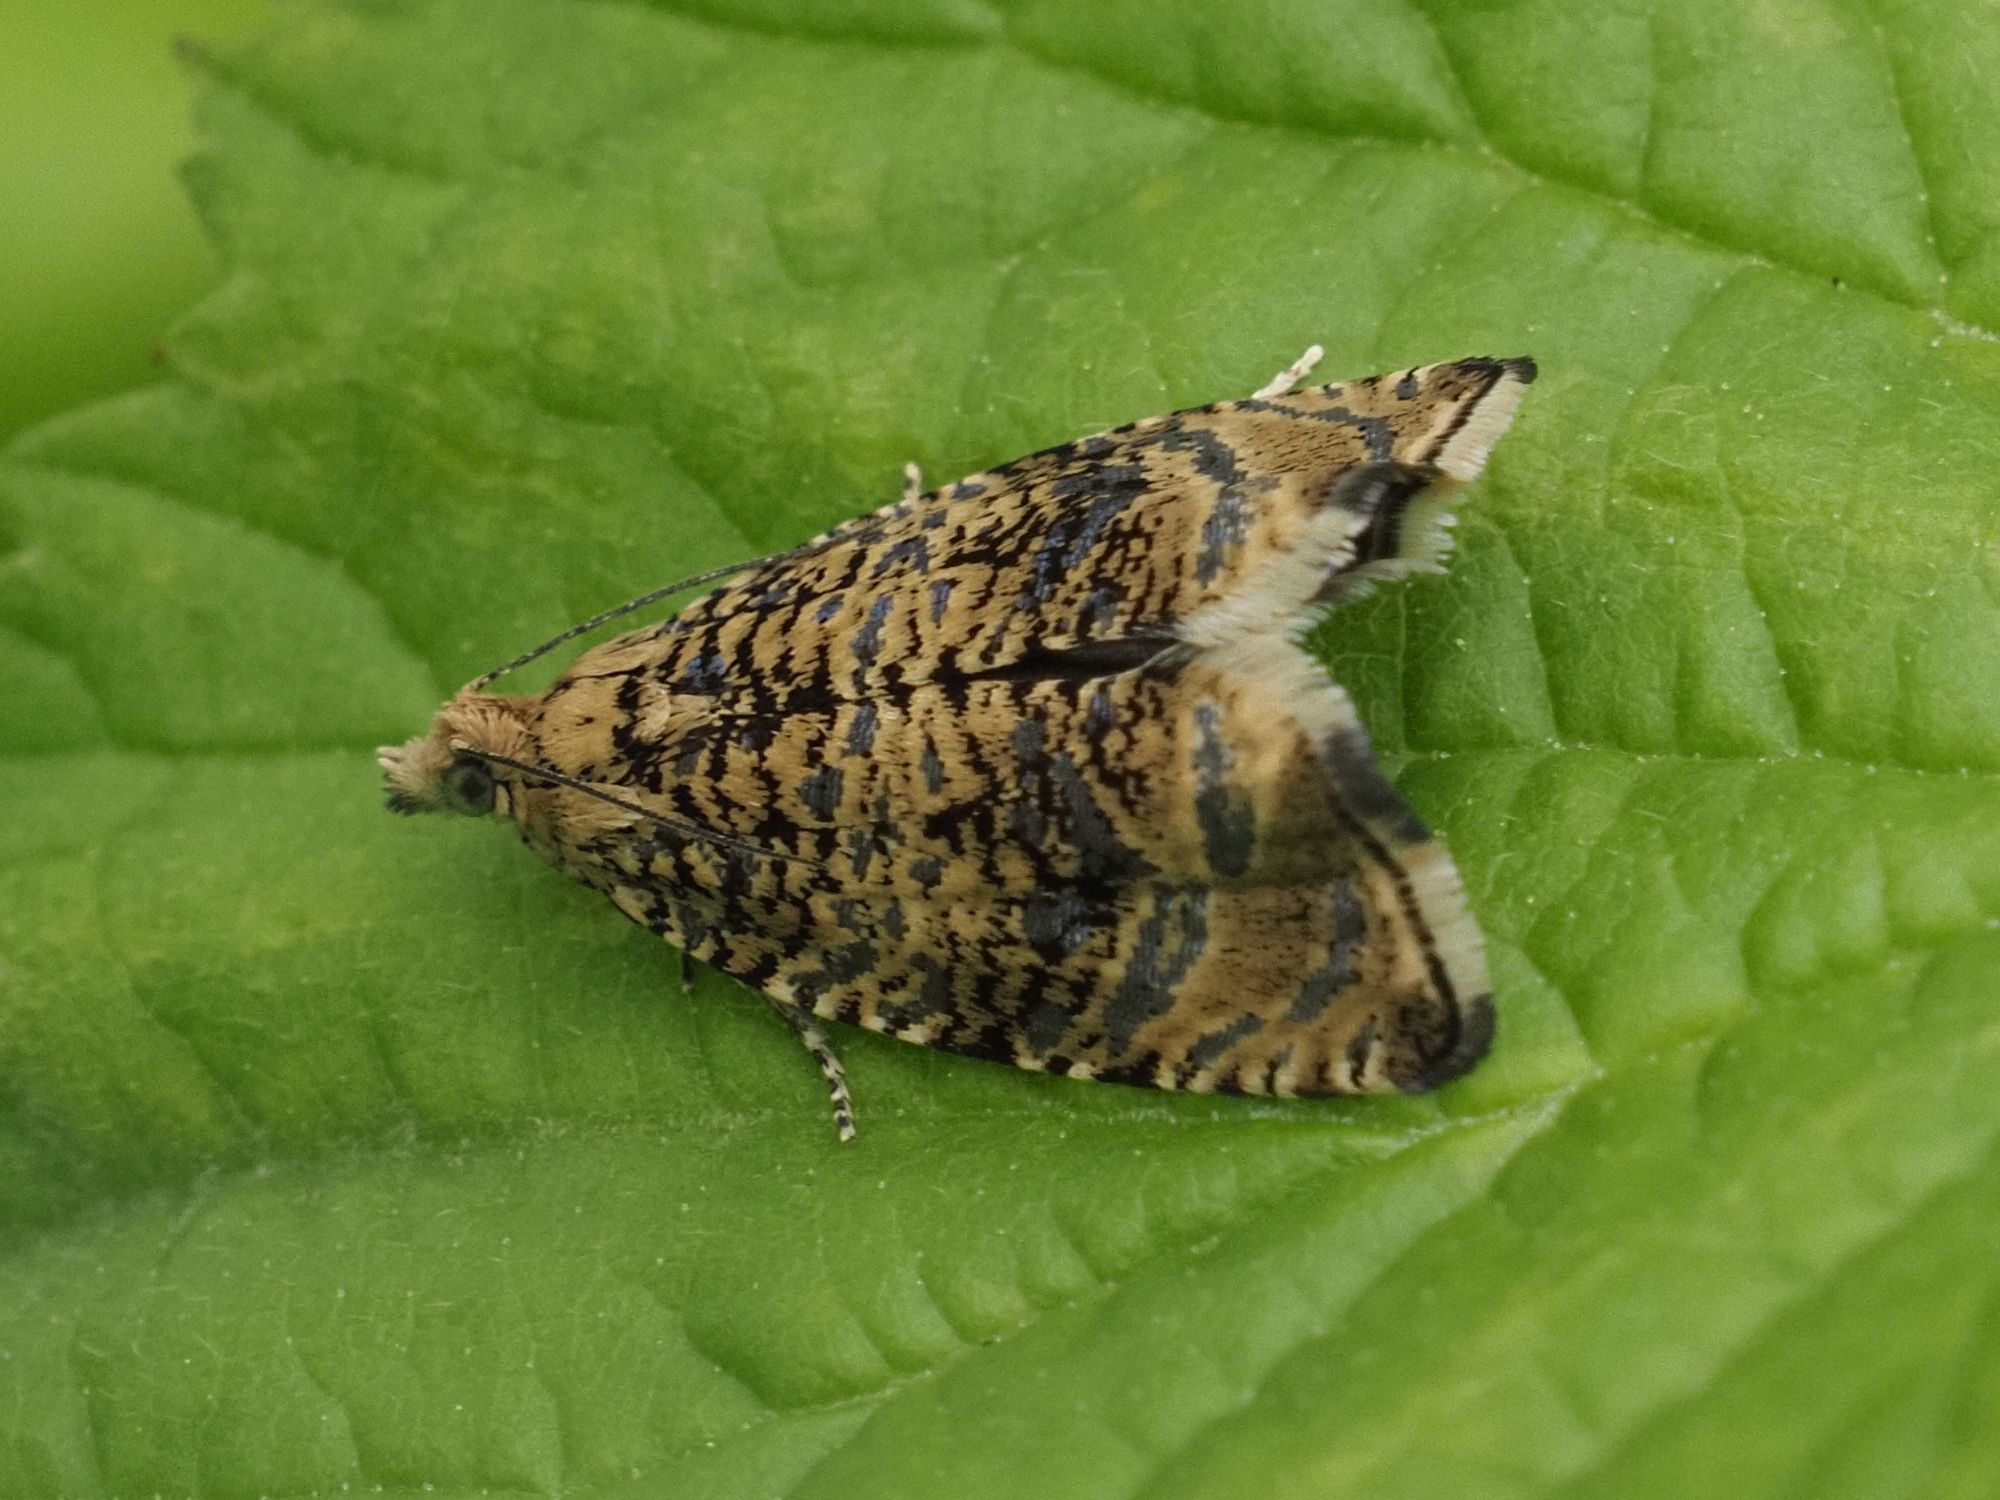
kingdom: Animalia
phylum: Arthropoda
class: Insecta
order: Lepidoptera
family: Tortricidae
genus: Syricoris
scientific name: Syricoris lacunana
